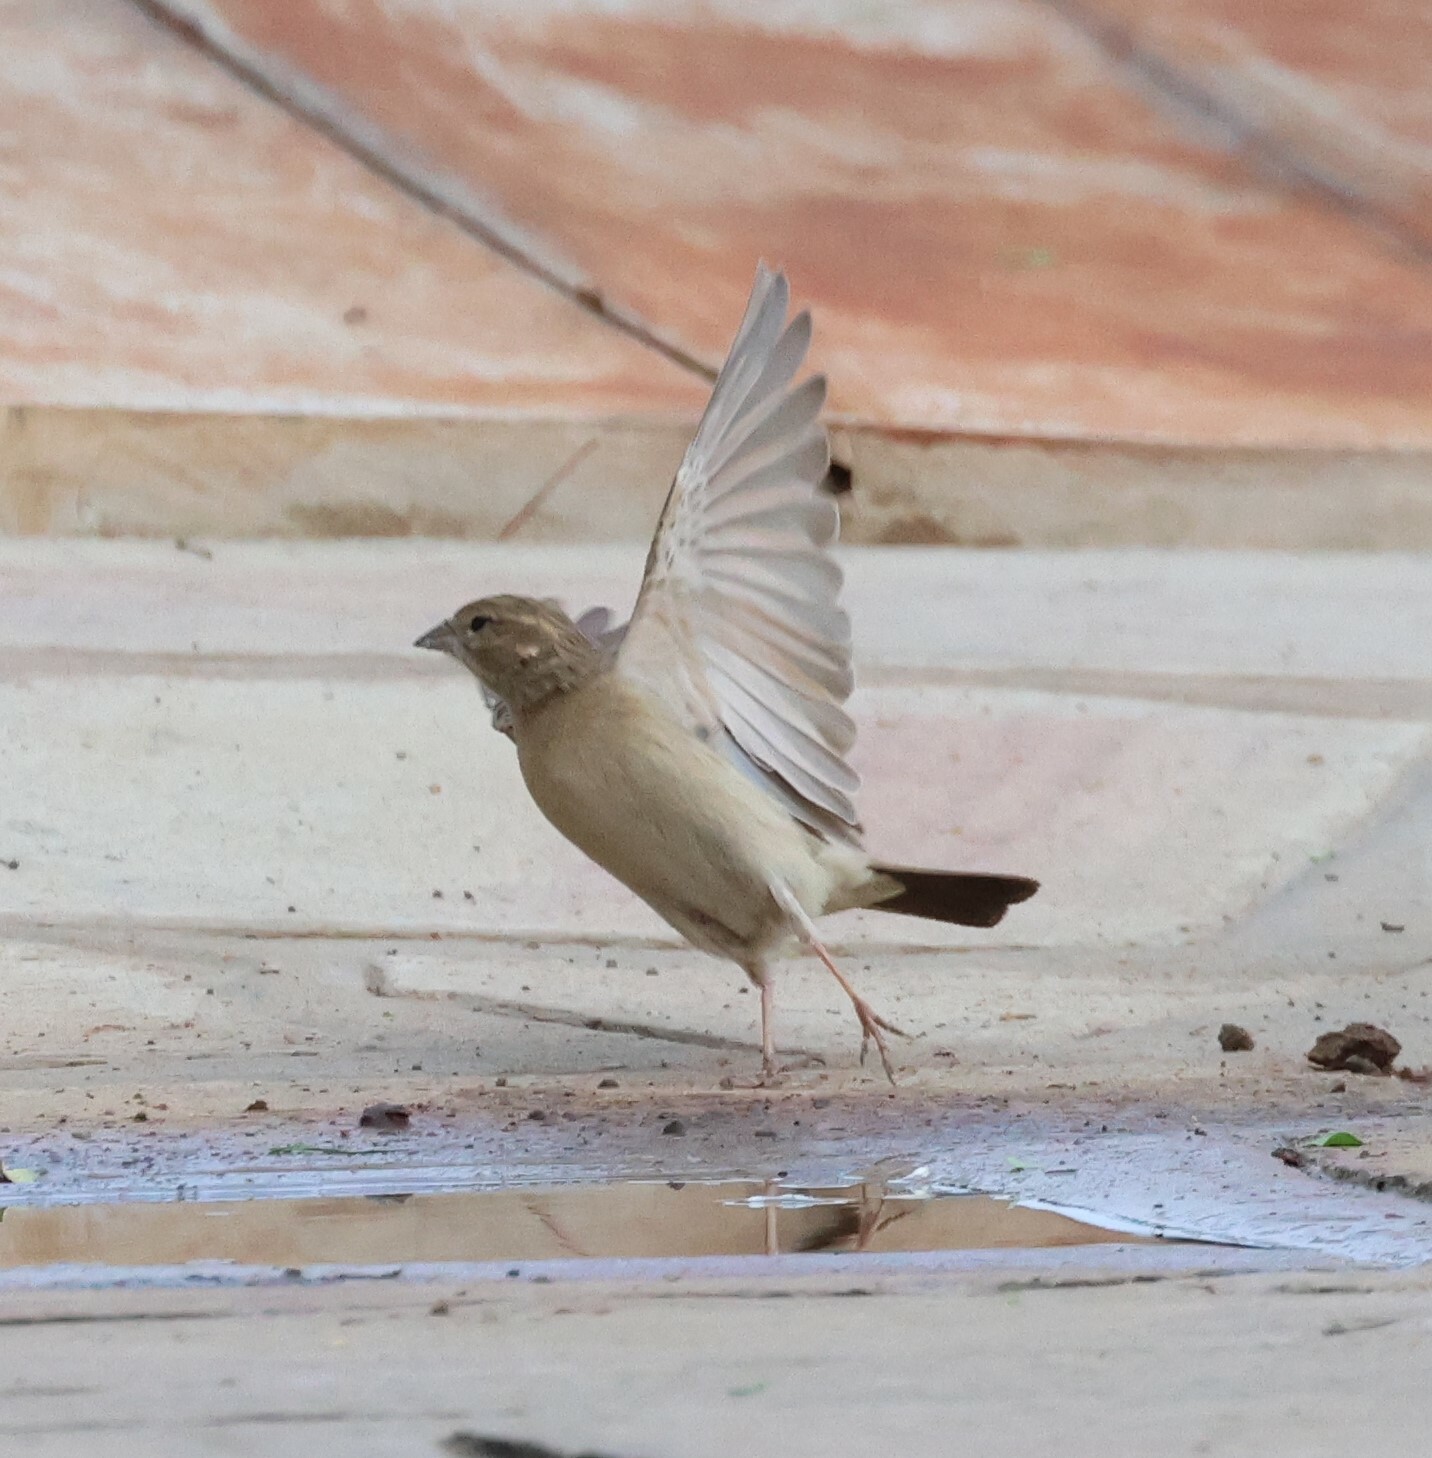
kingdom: Animalia
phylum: Chordata
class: Aves
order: Passeriformes
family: Emberizidae
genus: Emberiza
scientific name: Emberiza impetuani
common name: Lark-like bunting
